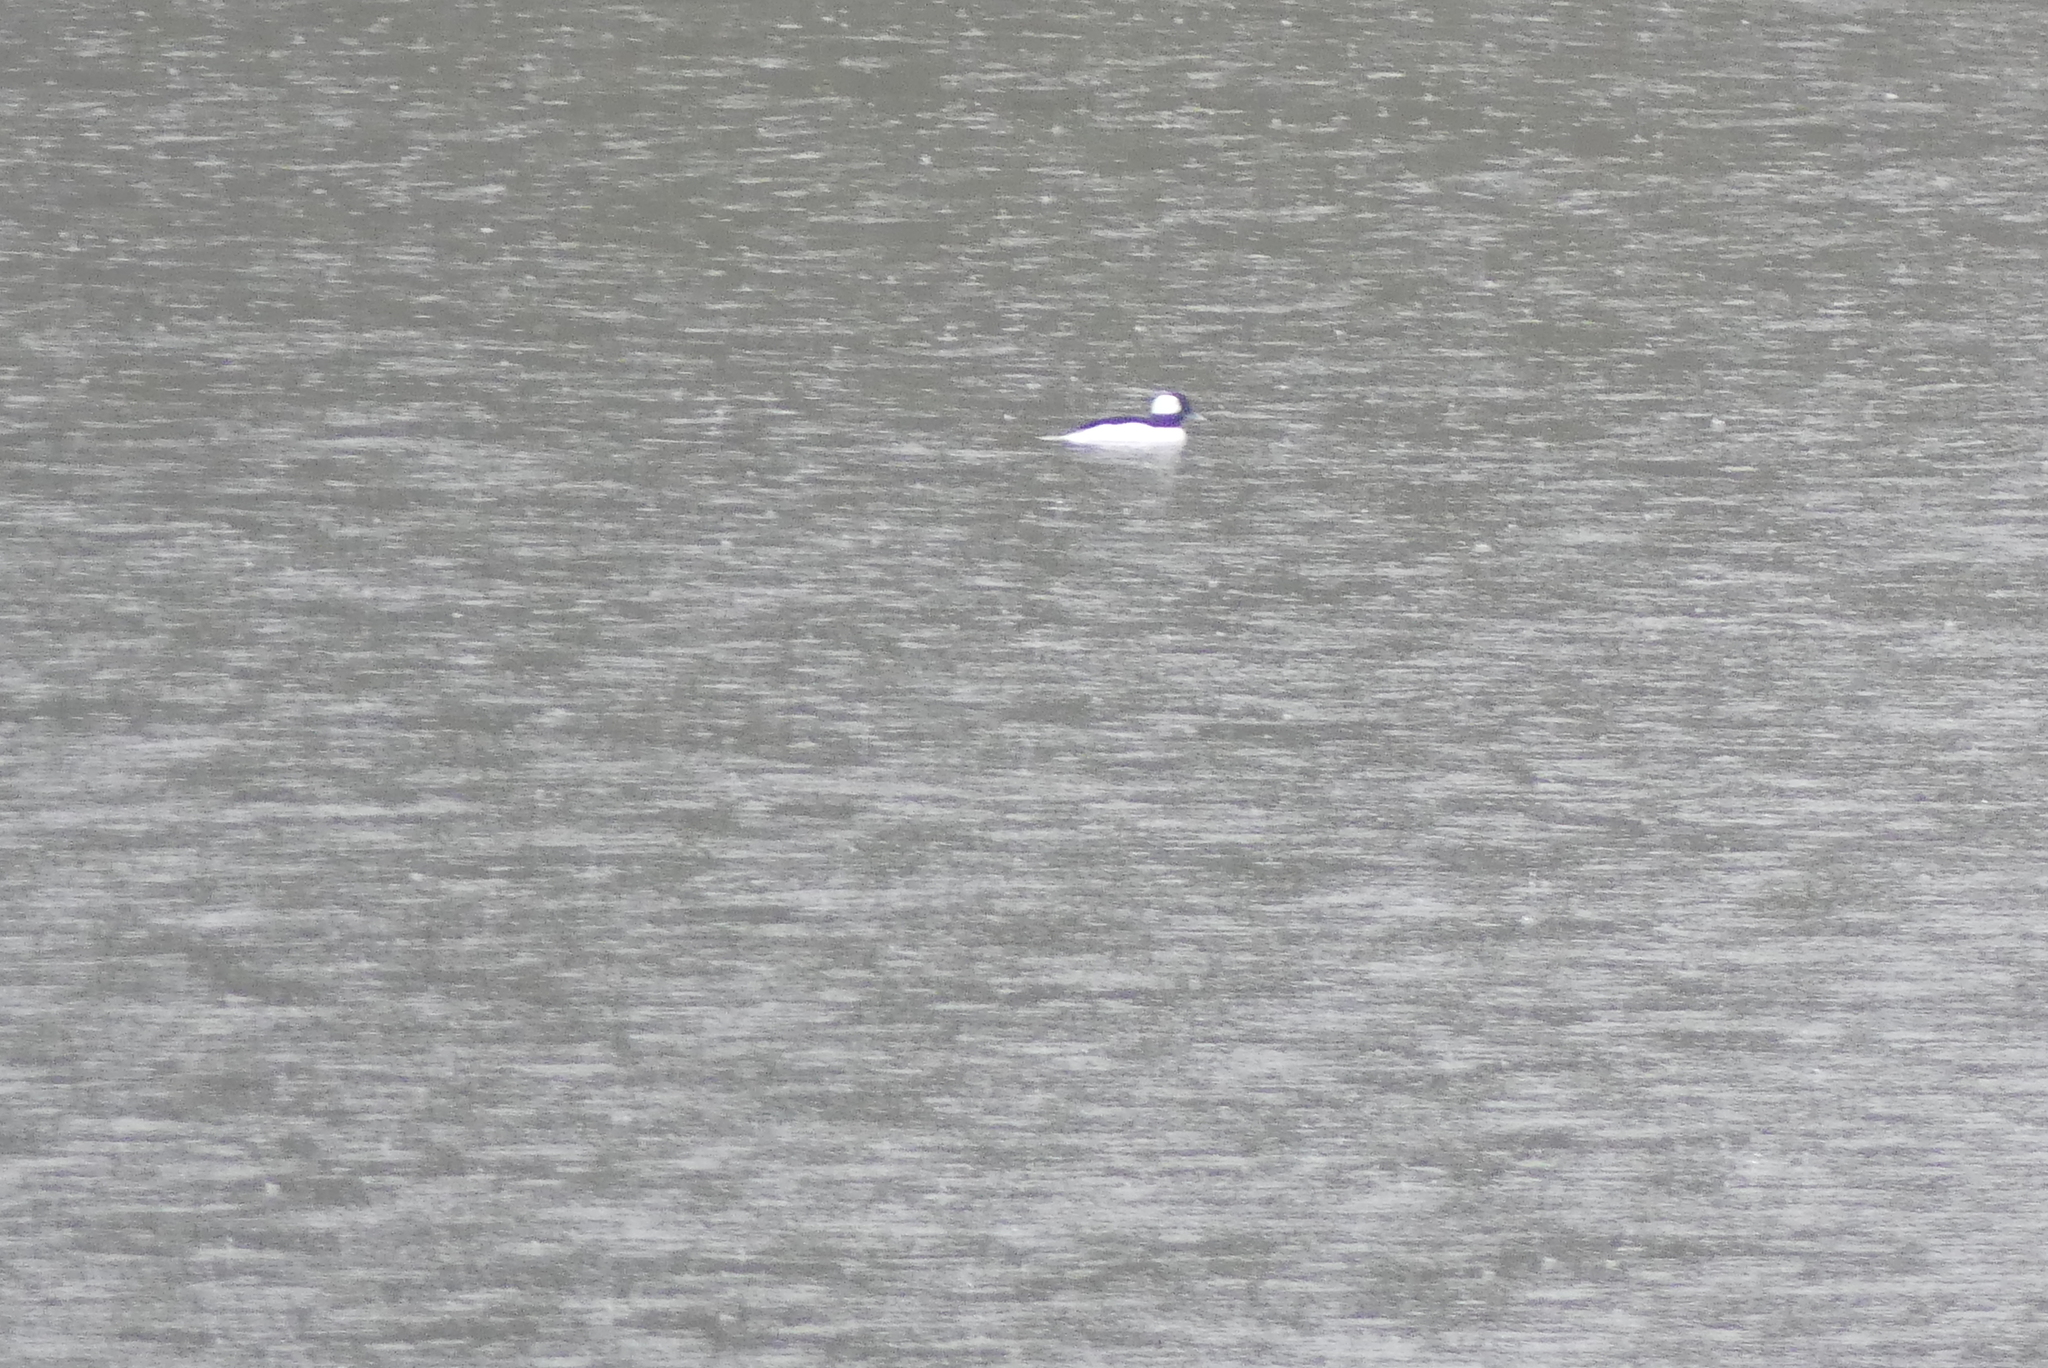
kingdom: Animalia
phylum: Chordata
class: Aves
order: Anseriformes
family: Anatidae
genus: Bucephala
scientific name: Bucephala albeola
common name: Bufflehead
